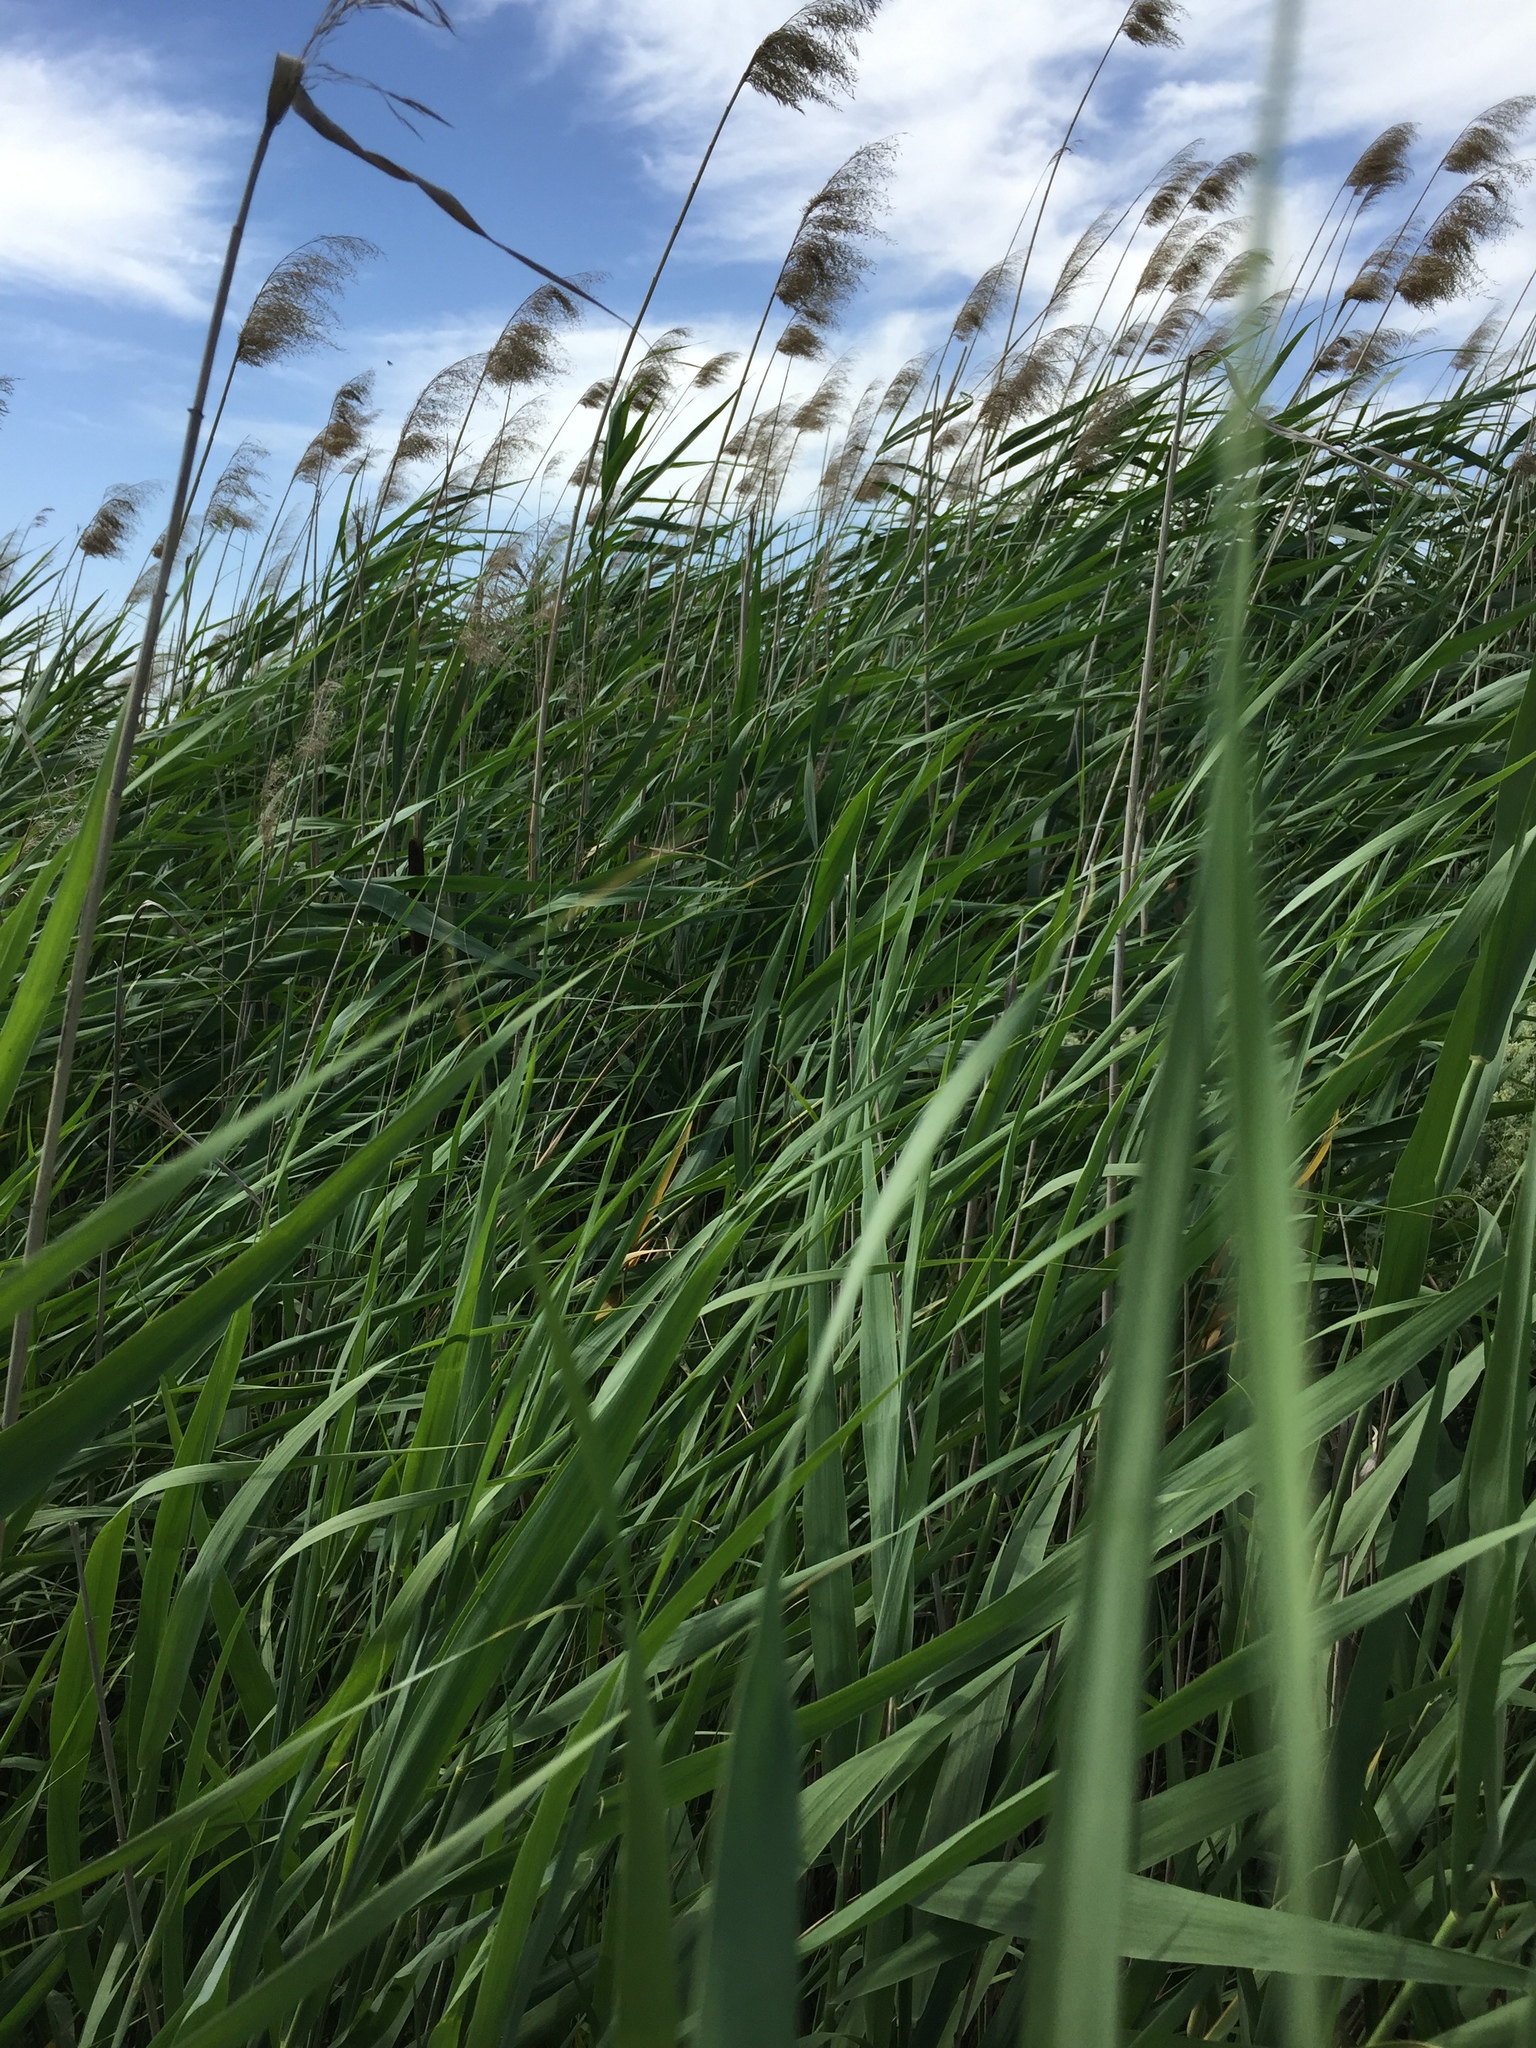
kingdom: Plantae
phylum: Tracheophyta
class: Liliopsida
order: Poales
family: Poaceae
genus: Phragmites
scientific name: Phragmites australis
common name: Common reed
